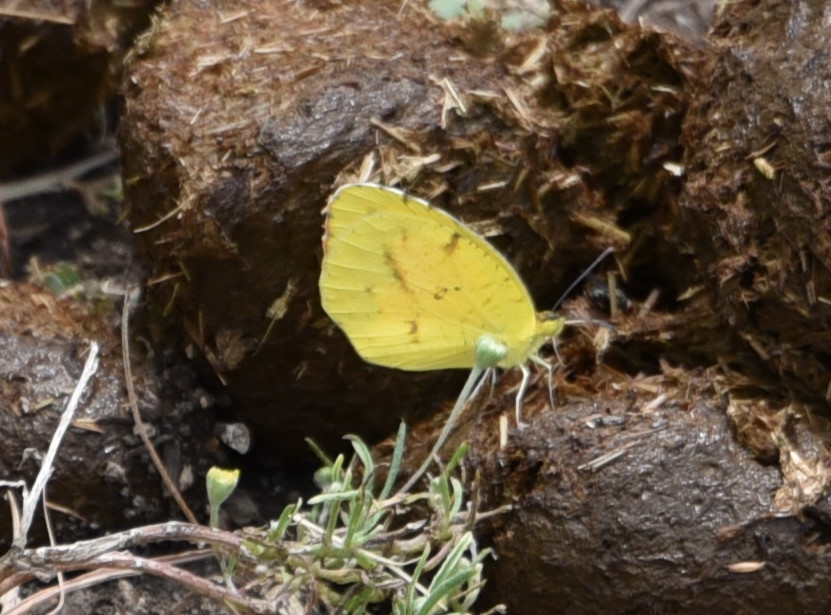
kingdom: Animalia
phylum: Arthropoda
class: Insecta
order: Lepidoptera
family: Pieridae
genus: Abaeis
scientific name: Abaeis nicippe
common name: Sleepy orange
